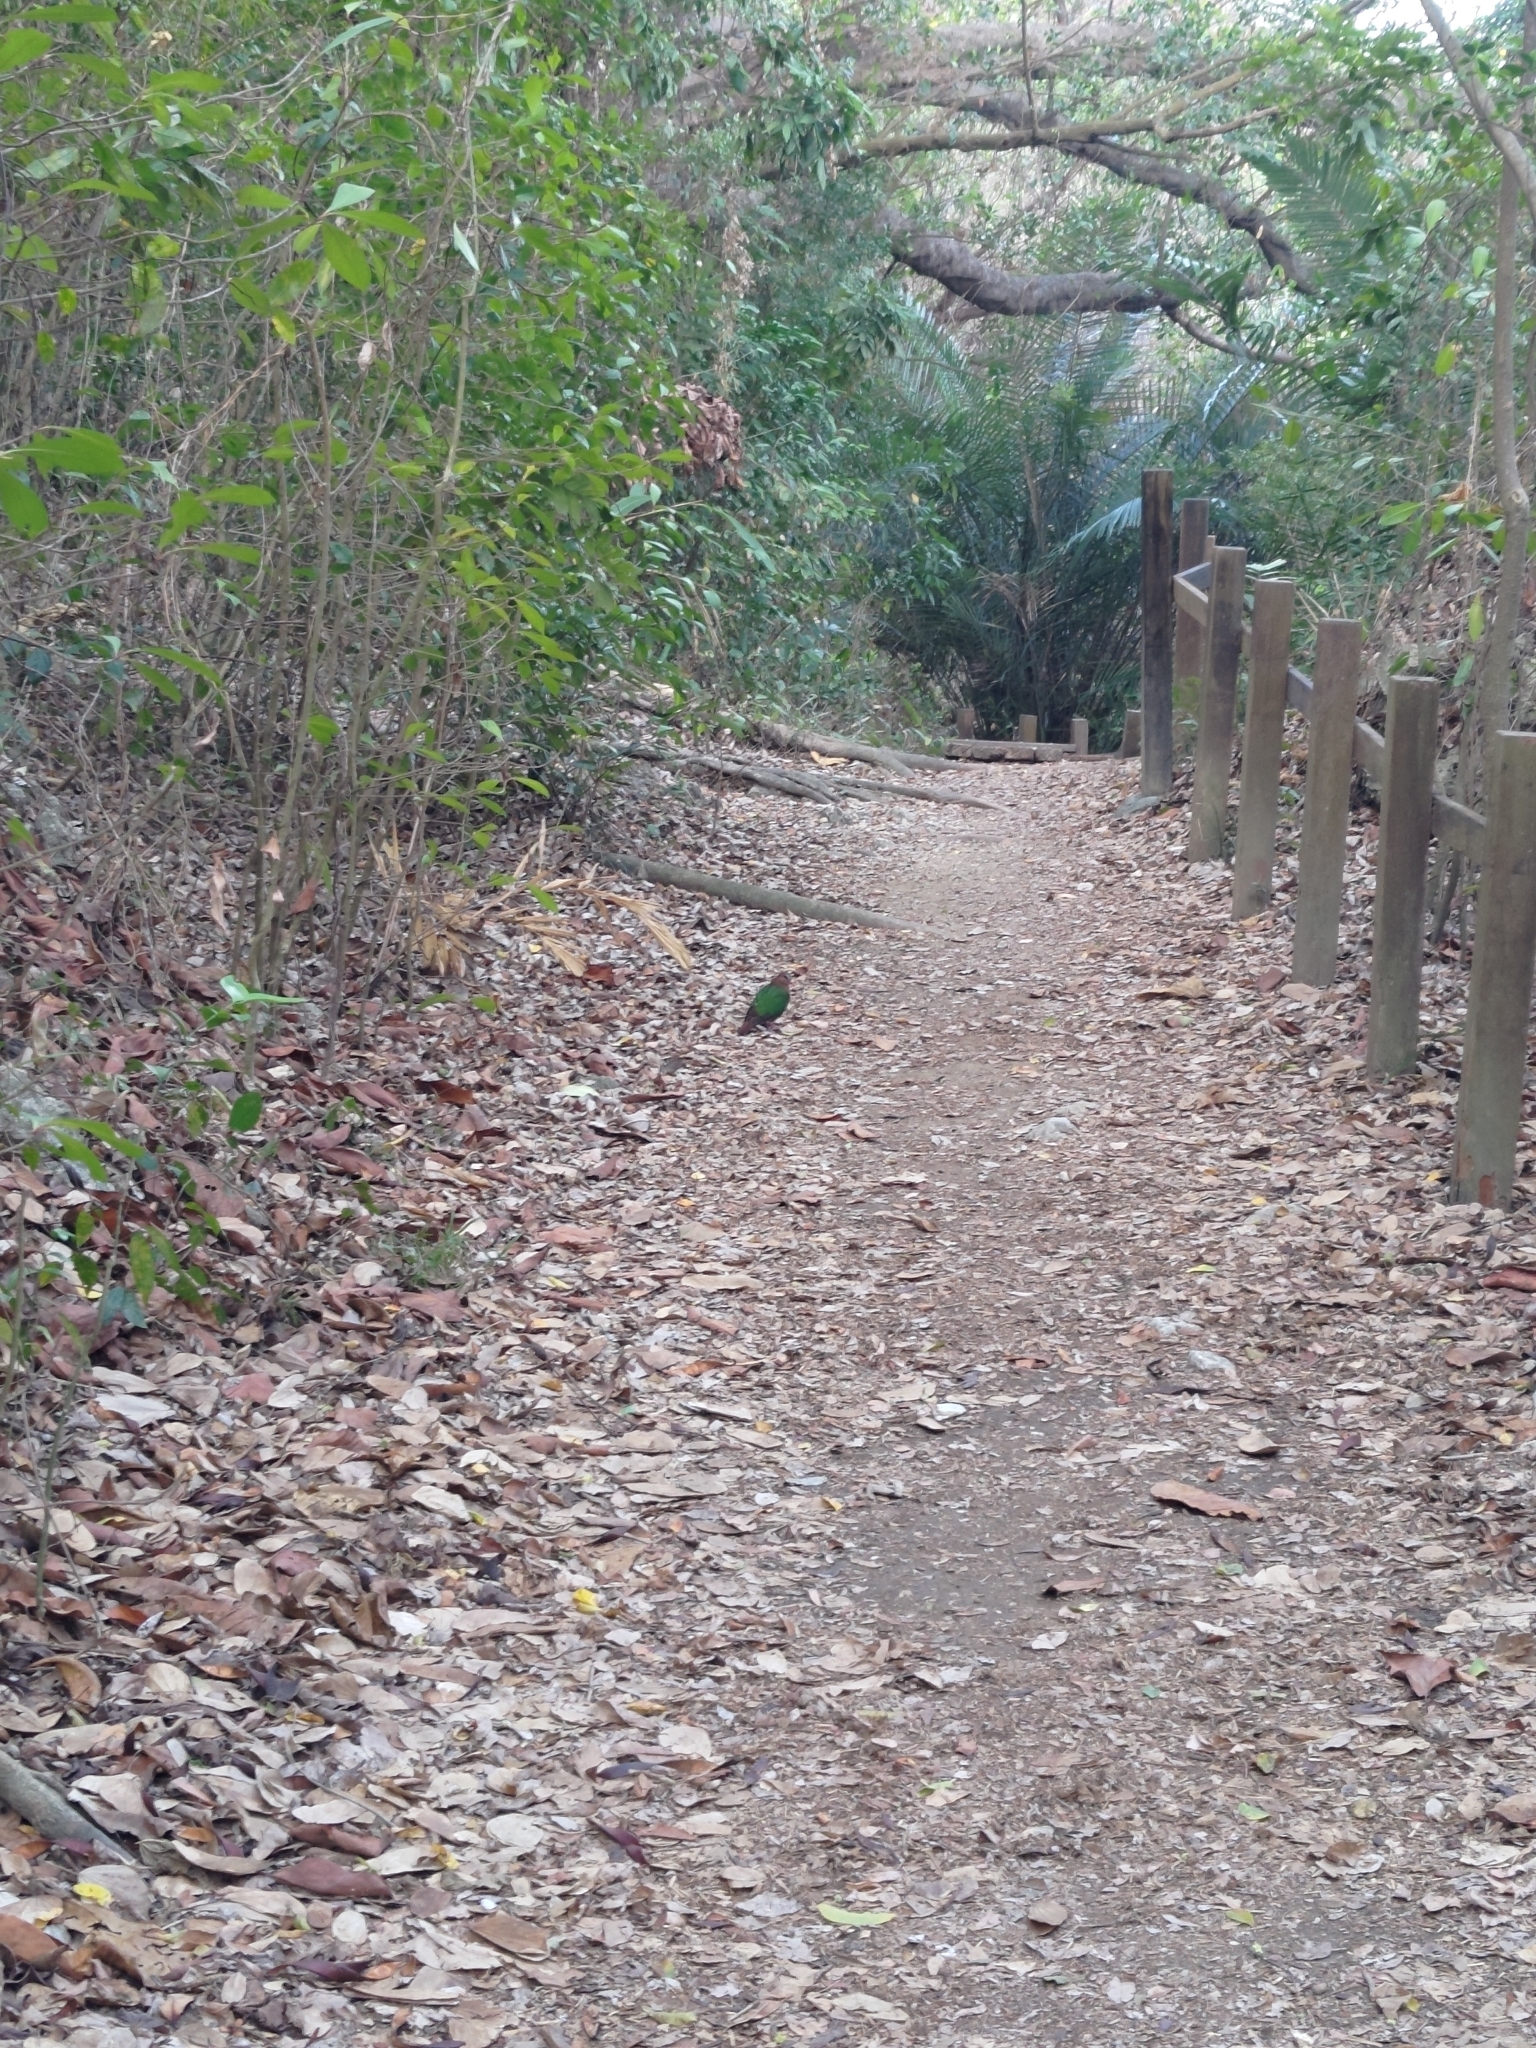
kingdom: Animalia
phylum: Chordata
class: Aves
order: Columbiformes
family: Columbidae
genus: Chalcophaps
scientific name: Chalcophaps indica
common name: Common emerald dove
